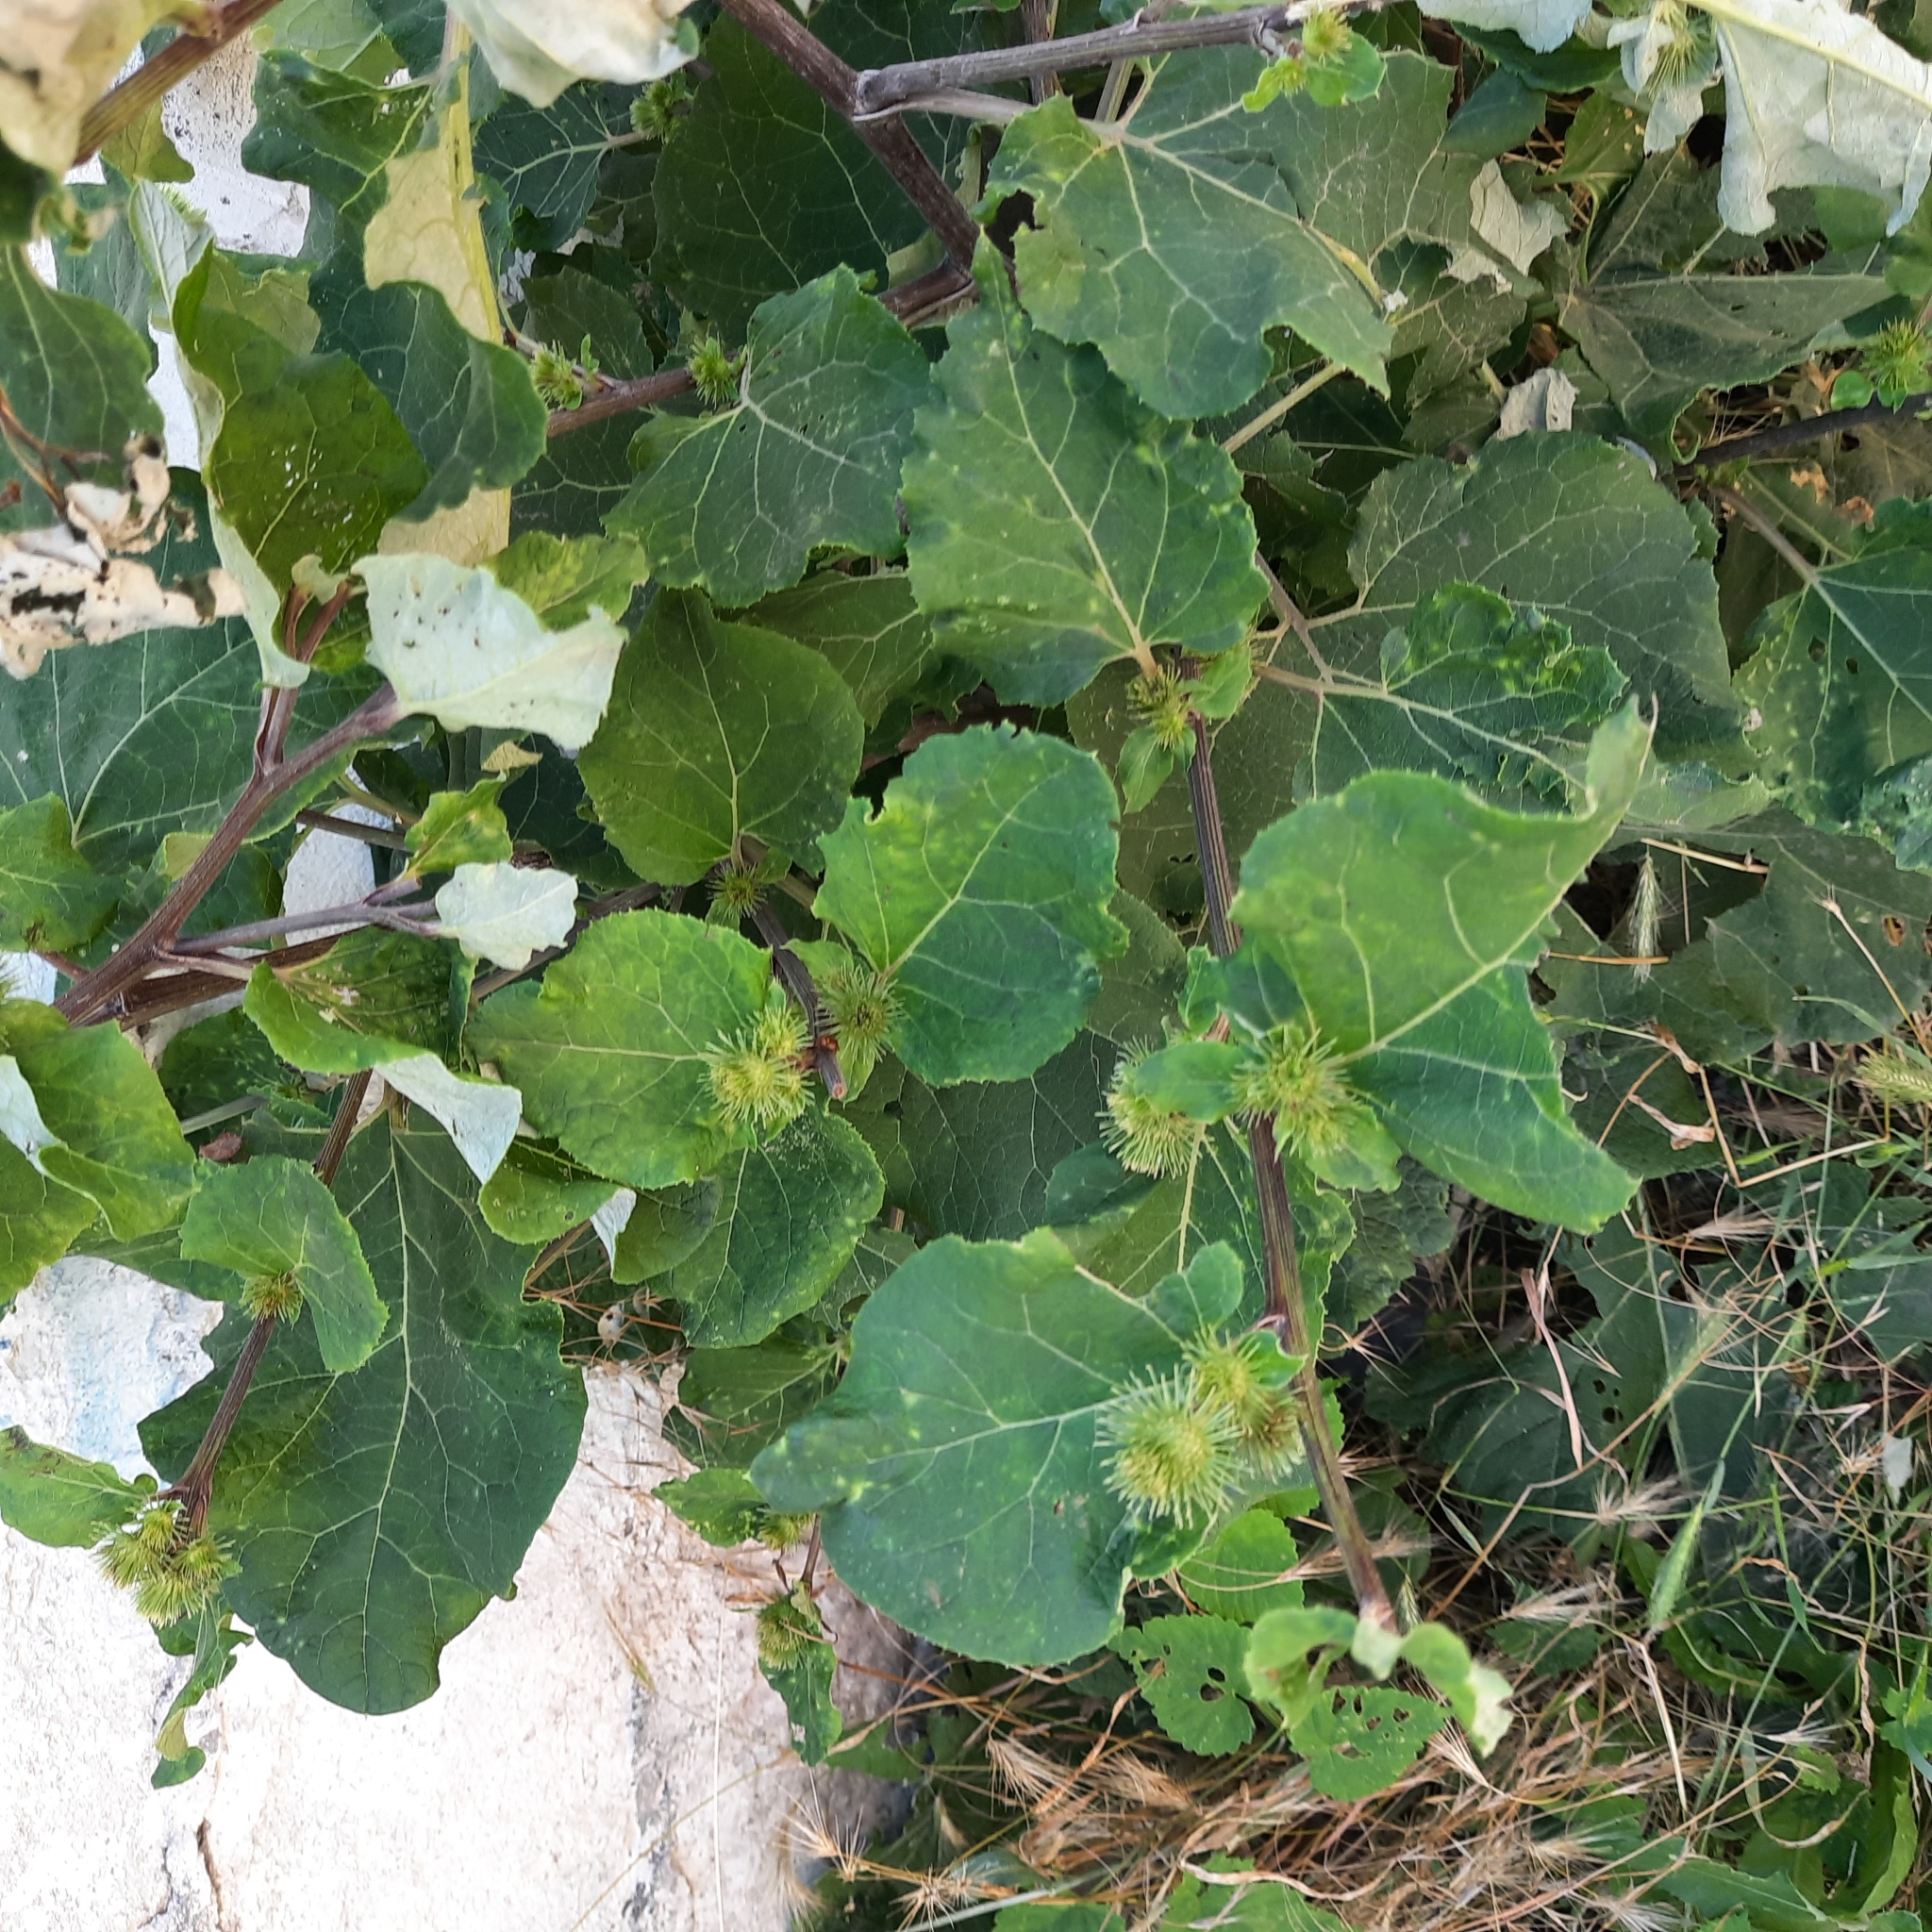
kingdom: Plantae
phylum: Tracheophyta
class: Magnoliopsida
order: Asterales
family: Asteraceae
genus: Arctium
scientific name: Arctium nemorosum
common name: Wood burdock
